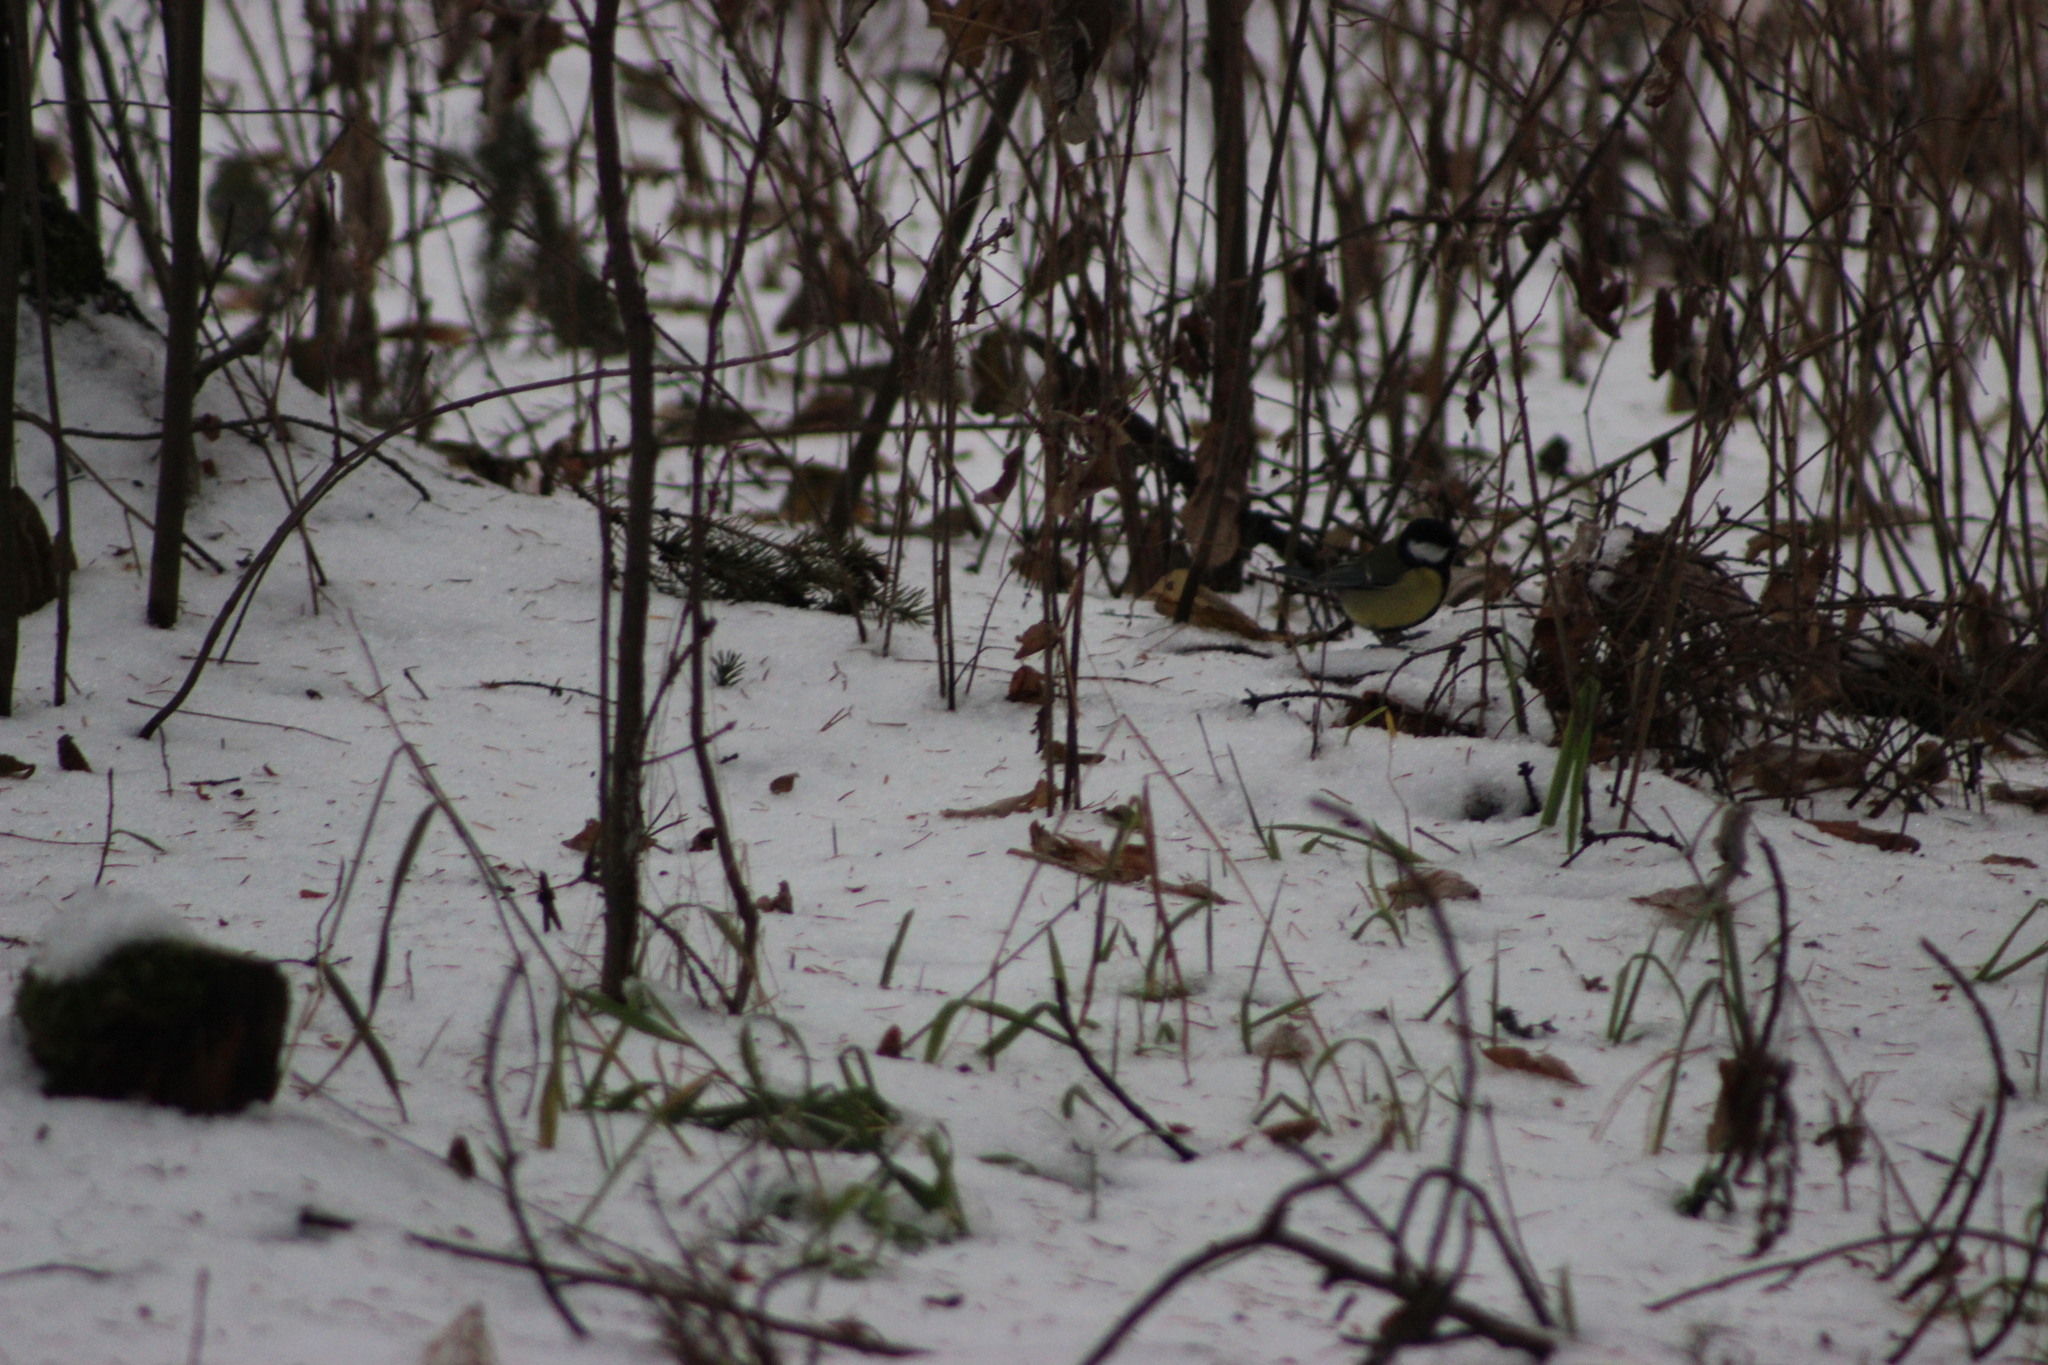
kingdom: Animalia
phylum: Chordata
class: Aves
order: Passeriformes
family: Paridae
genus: Parus
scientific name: Parus major
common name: Great tit
